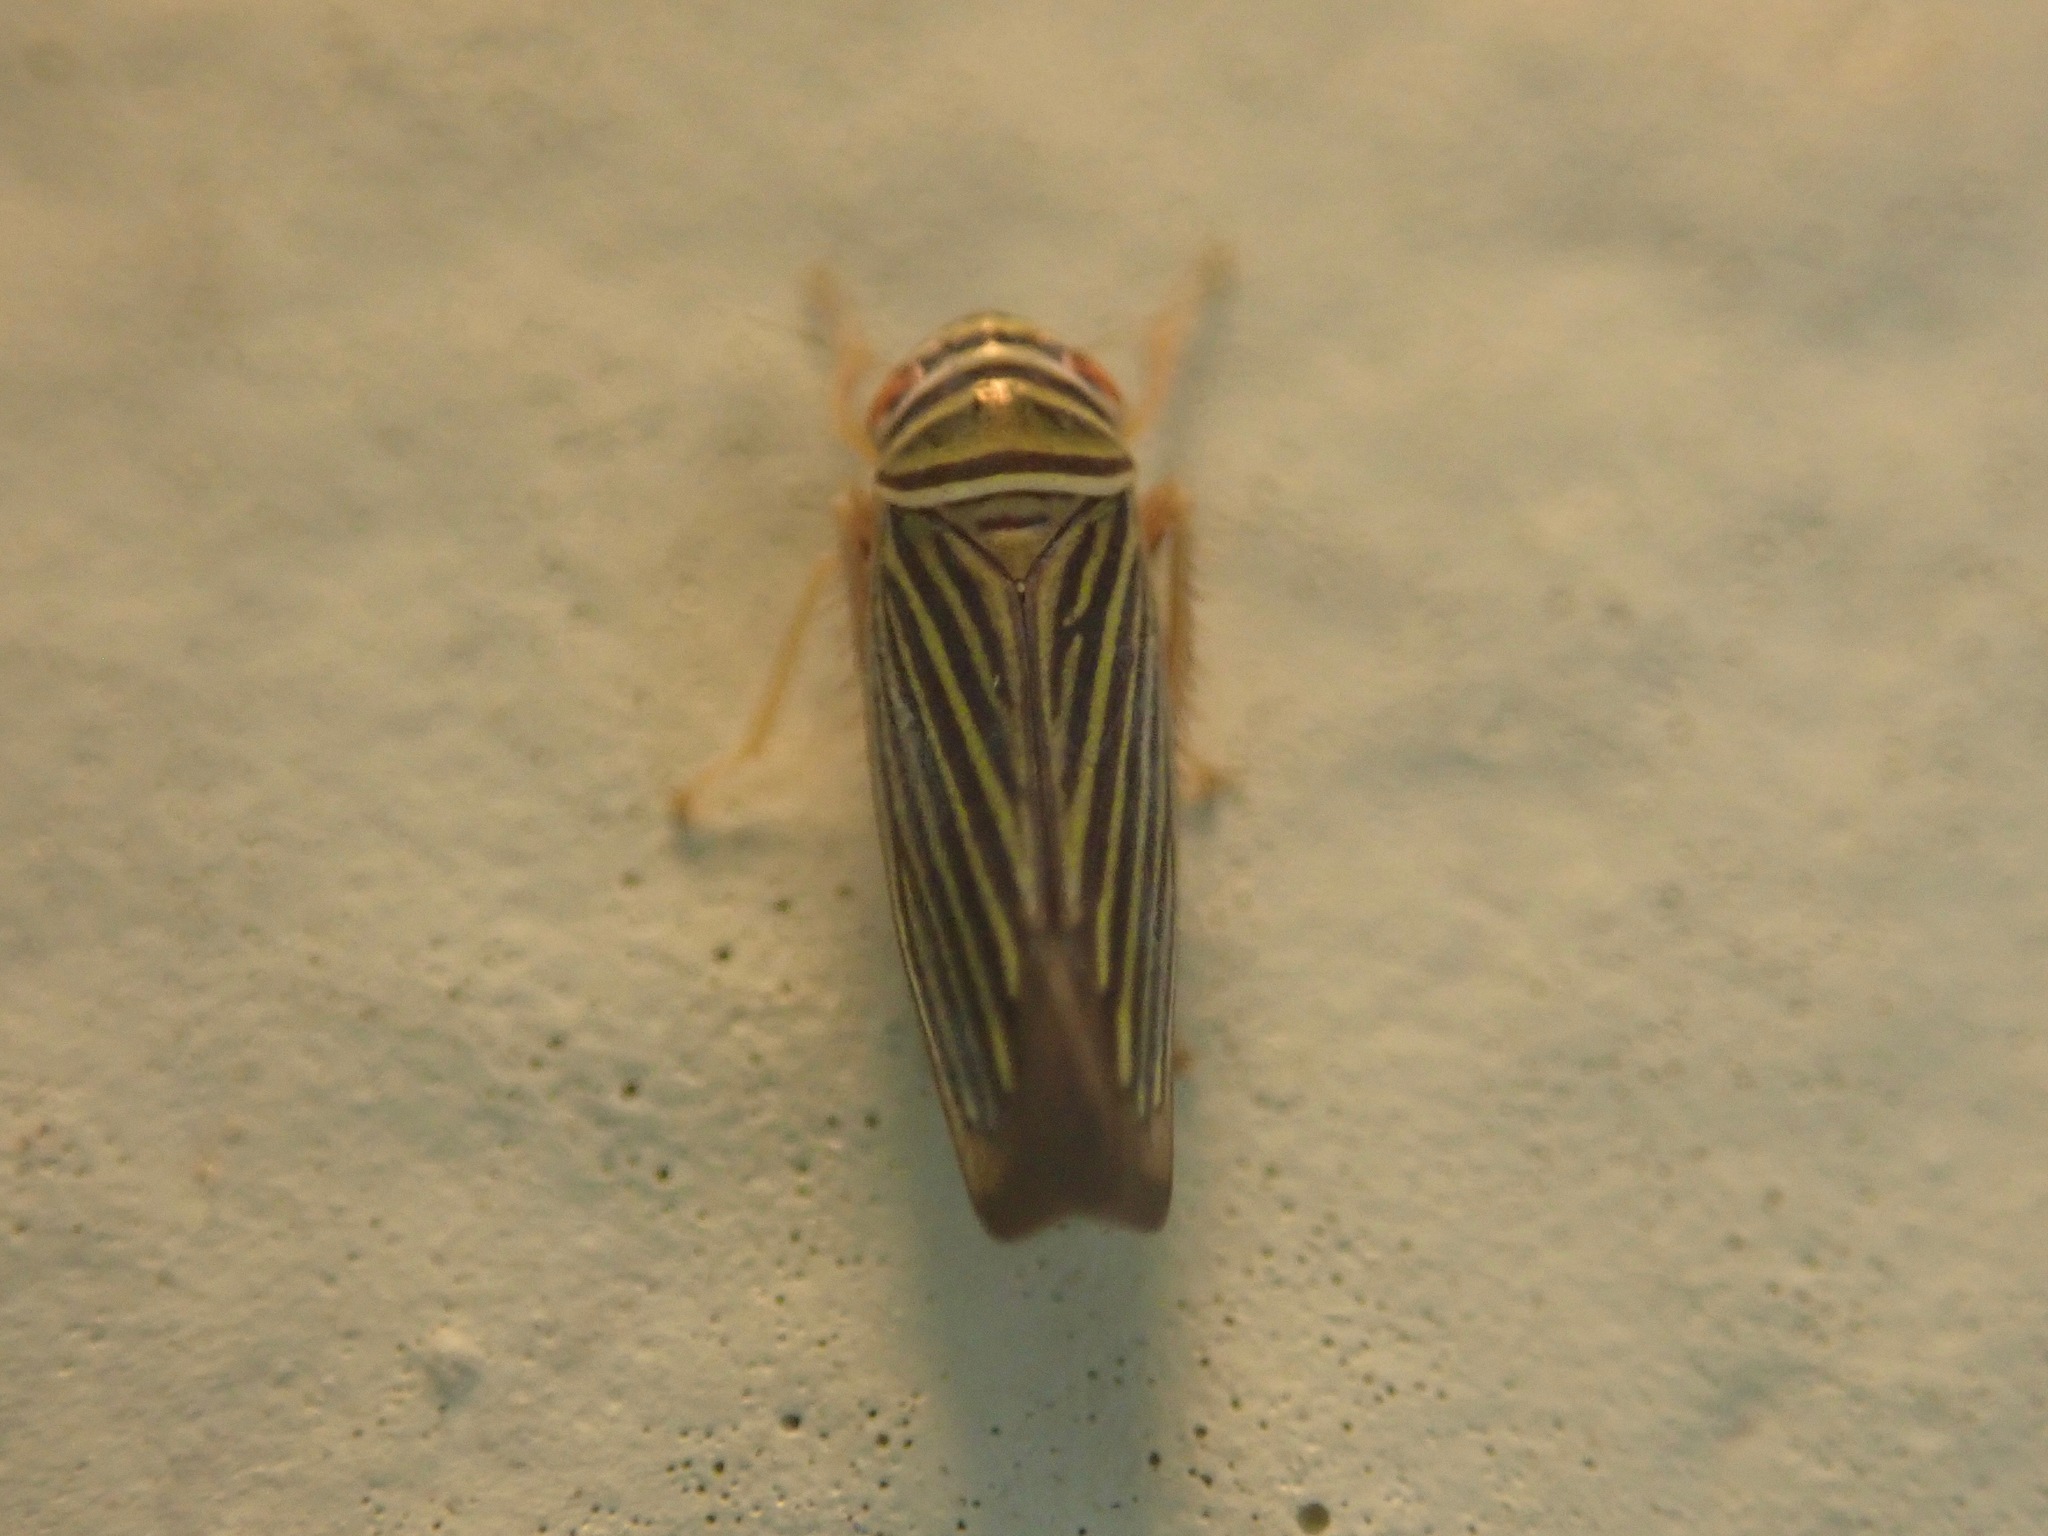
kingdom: Animalia
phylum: Arthropoda
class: Insecta
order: Hemiptera
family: Cicadellidae
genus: Tylozygus
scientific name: Tylozygus bifidus
